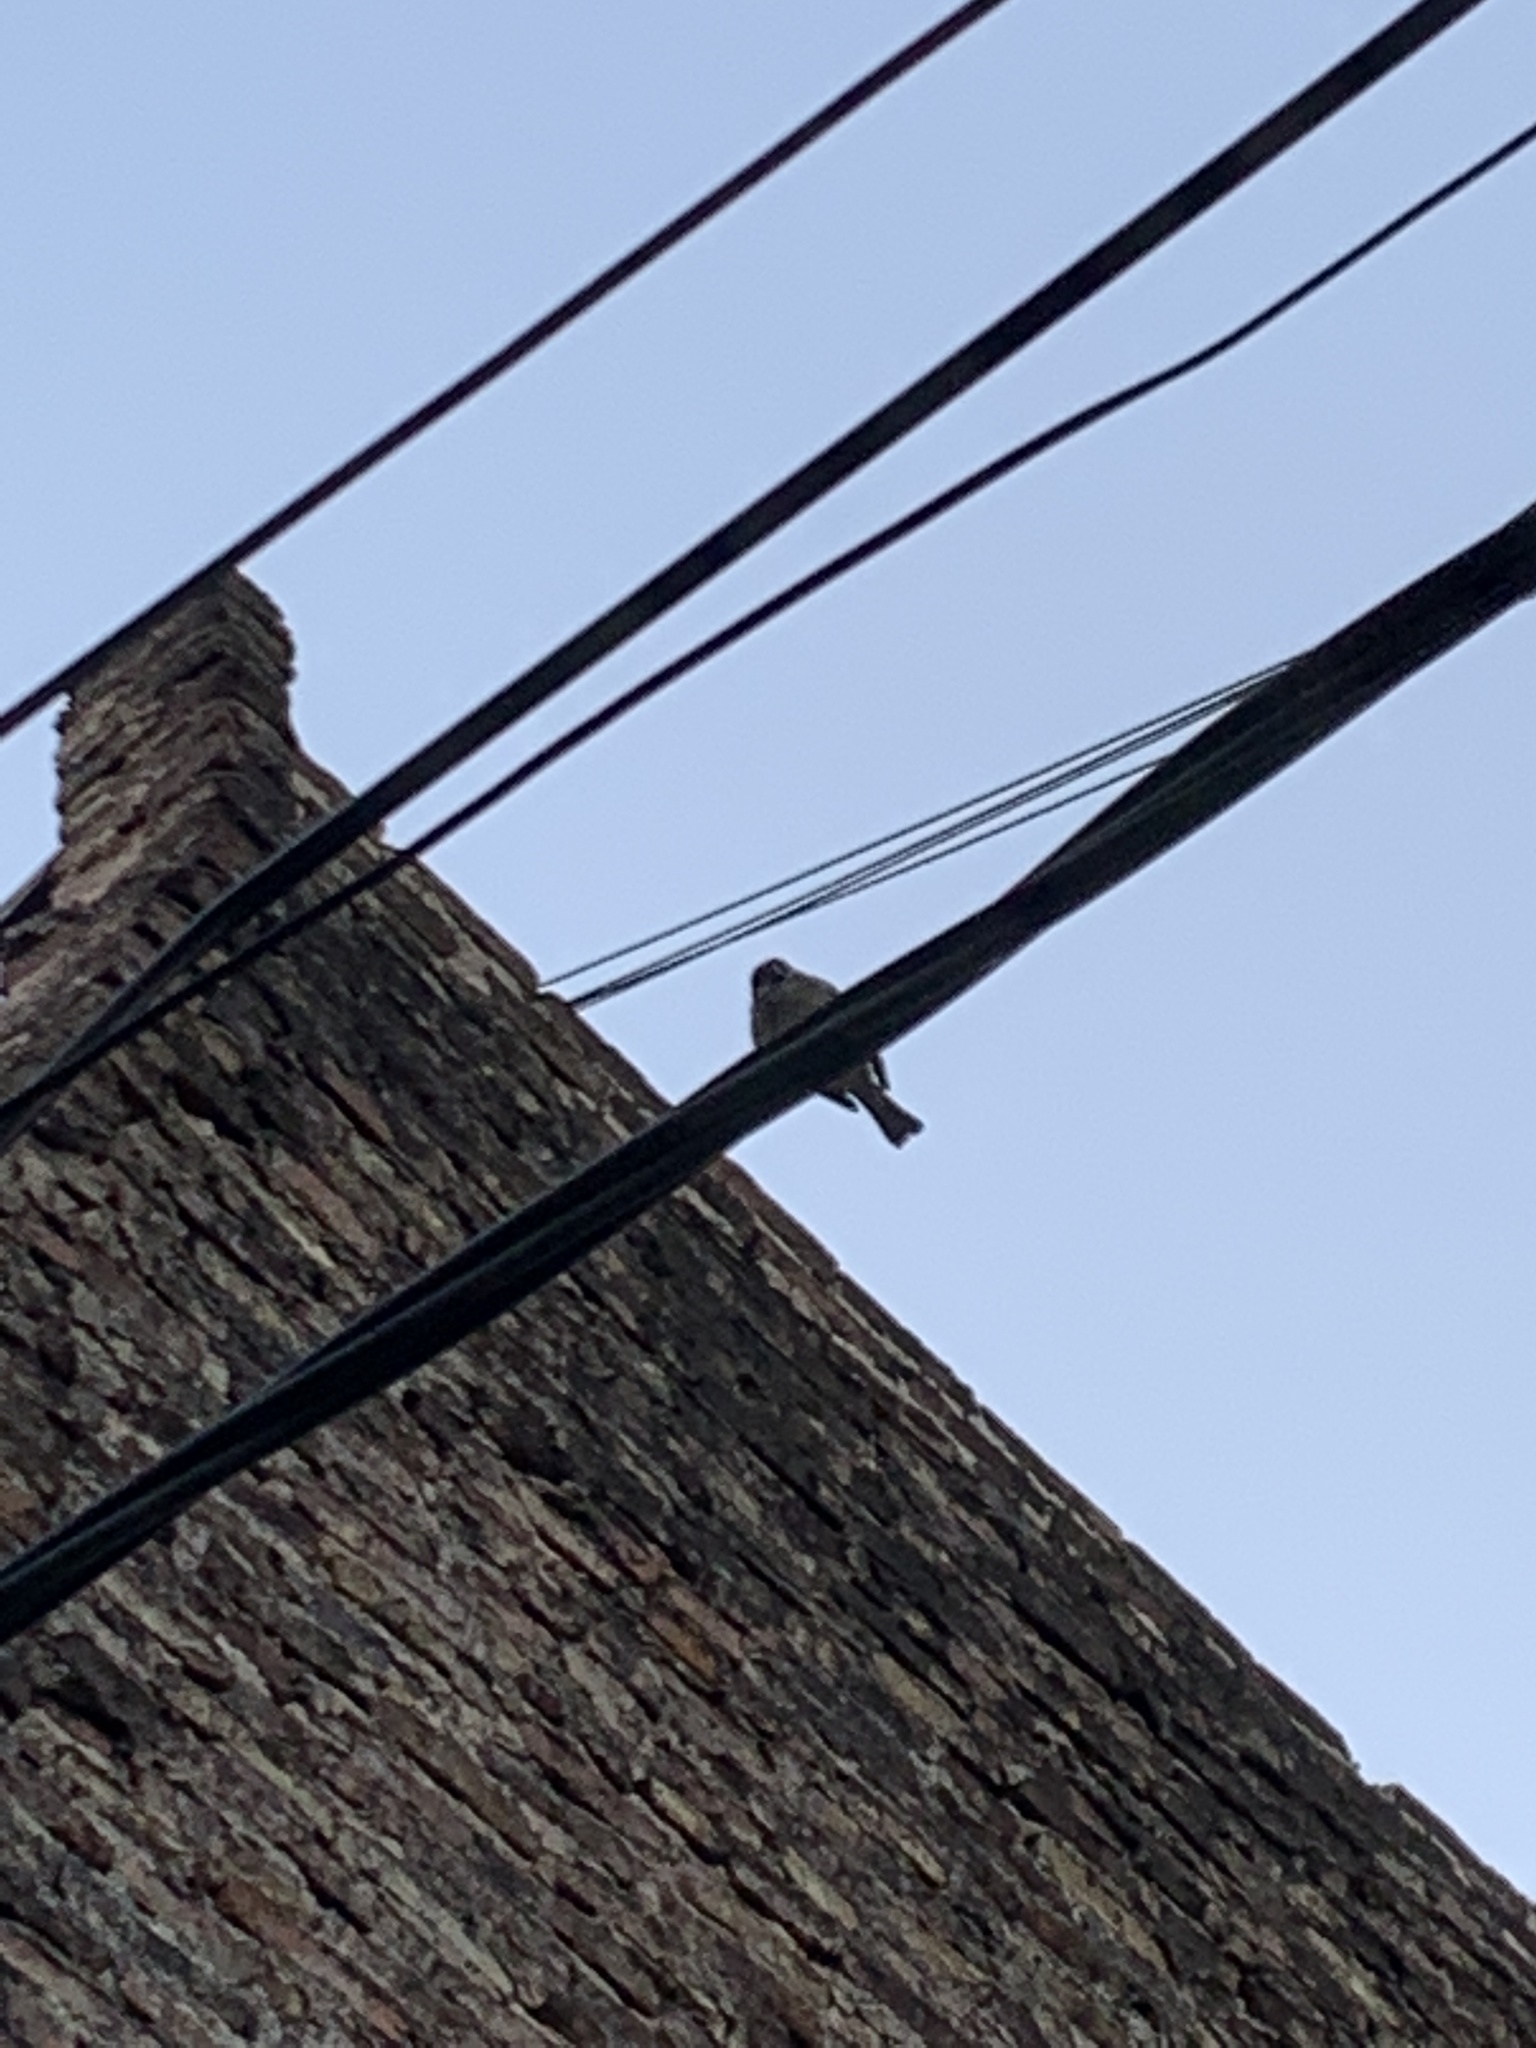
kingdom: Animalia
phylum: Chordata
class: Aves
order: Passeriformes
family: Passeridae
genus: Passer
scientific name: Passer domesticus
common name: House sparrow
